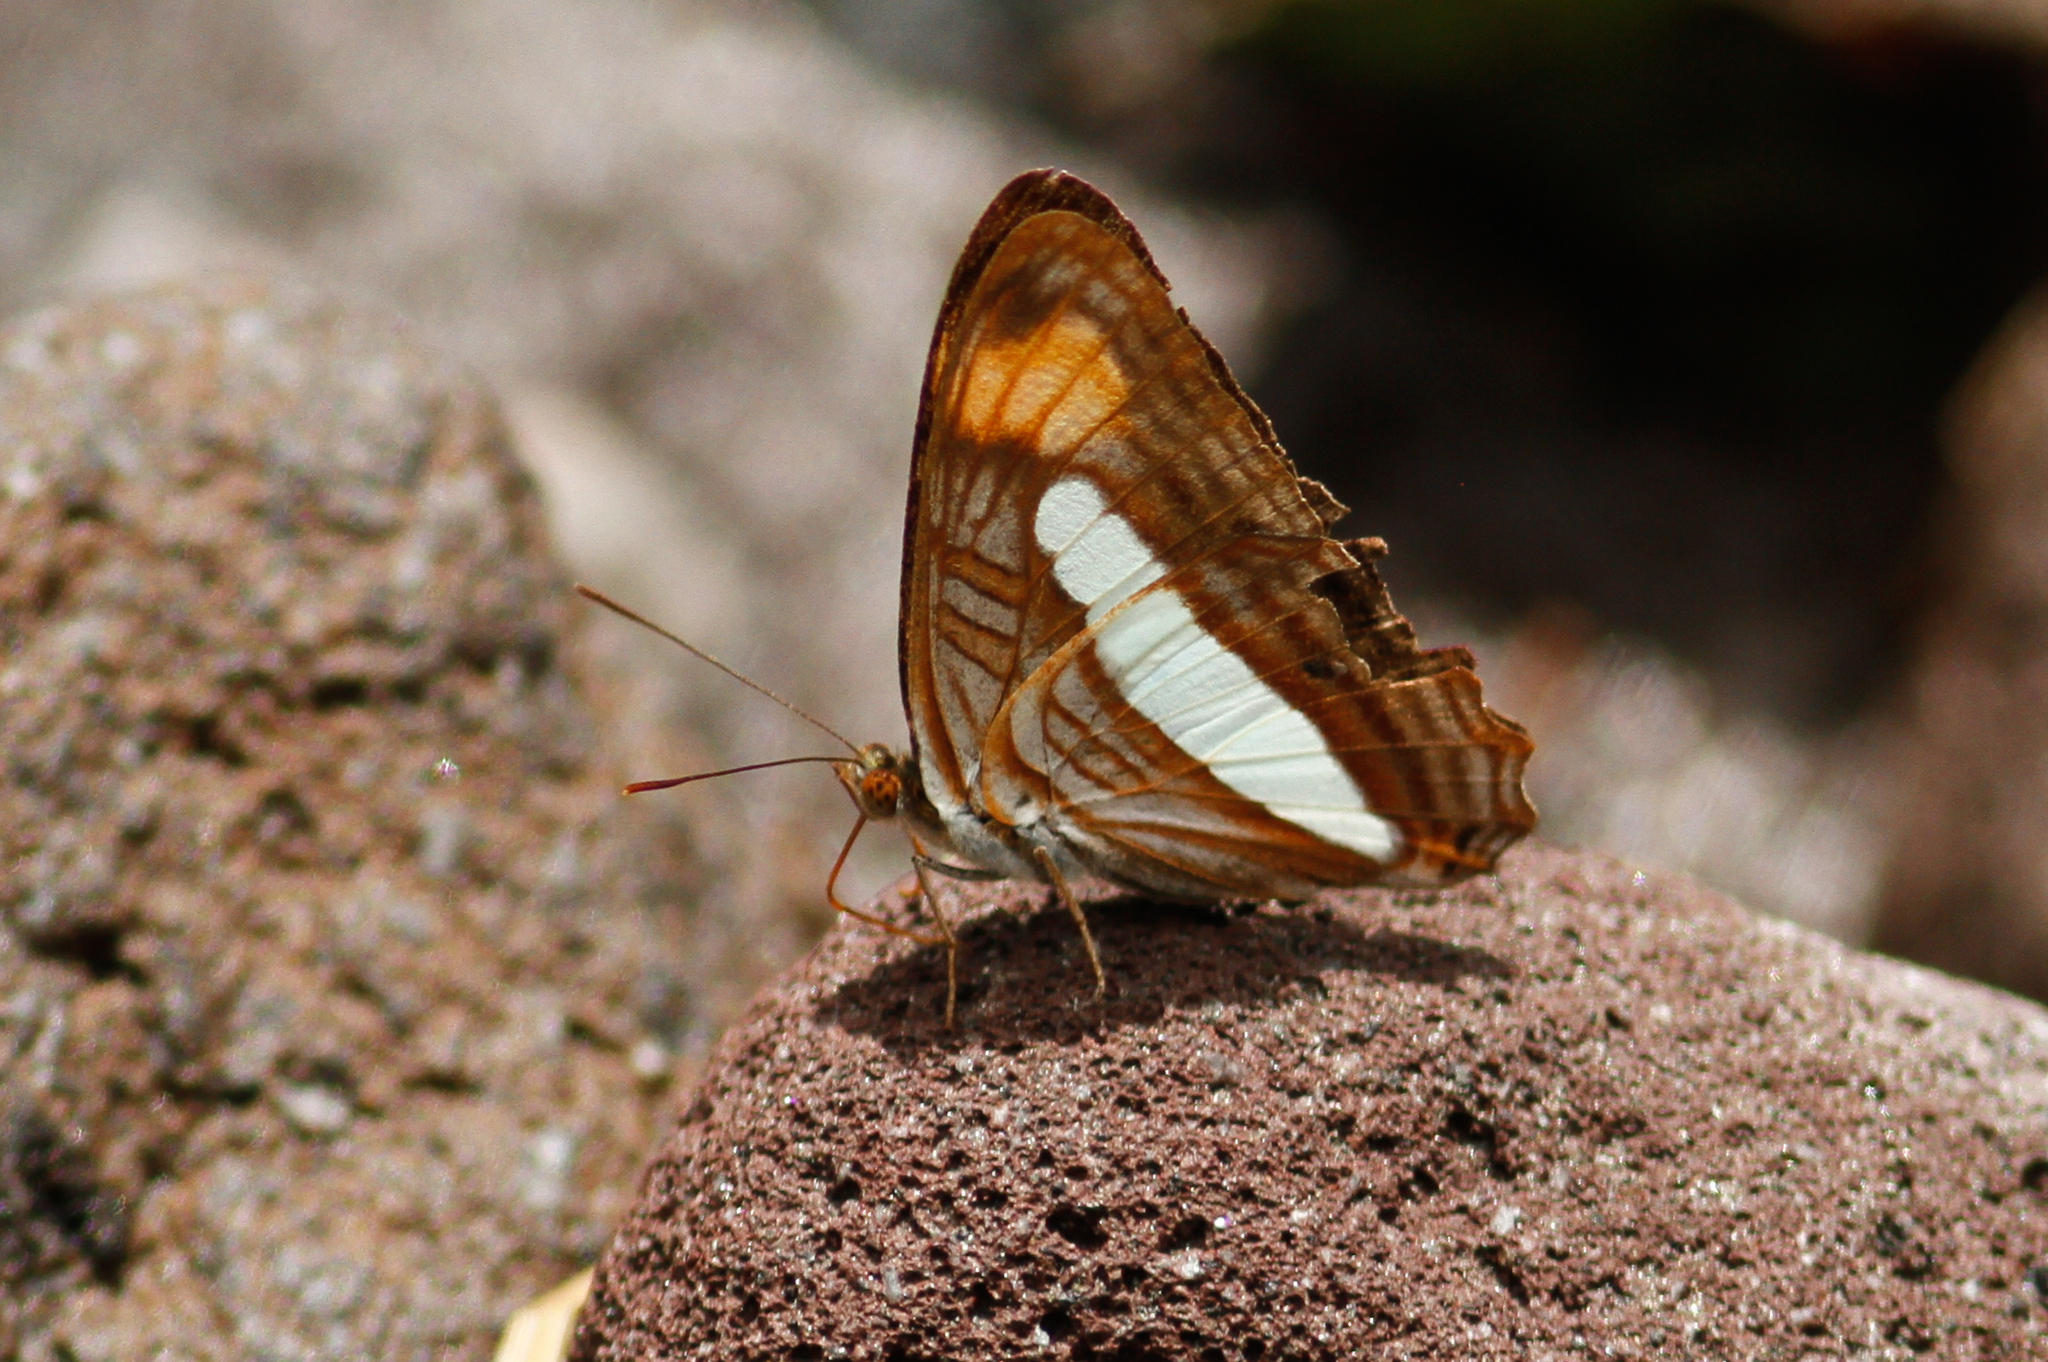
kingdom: Animalia
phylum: Arthropoda
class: Insecta
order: Lepidoptera
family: Nymphalidae
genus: Limenitis
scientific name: Limenitis thessalia
